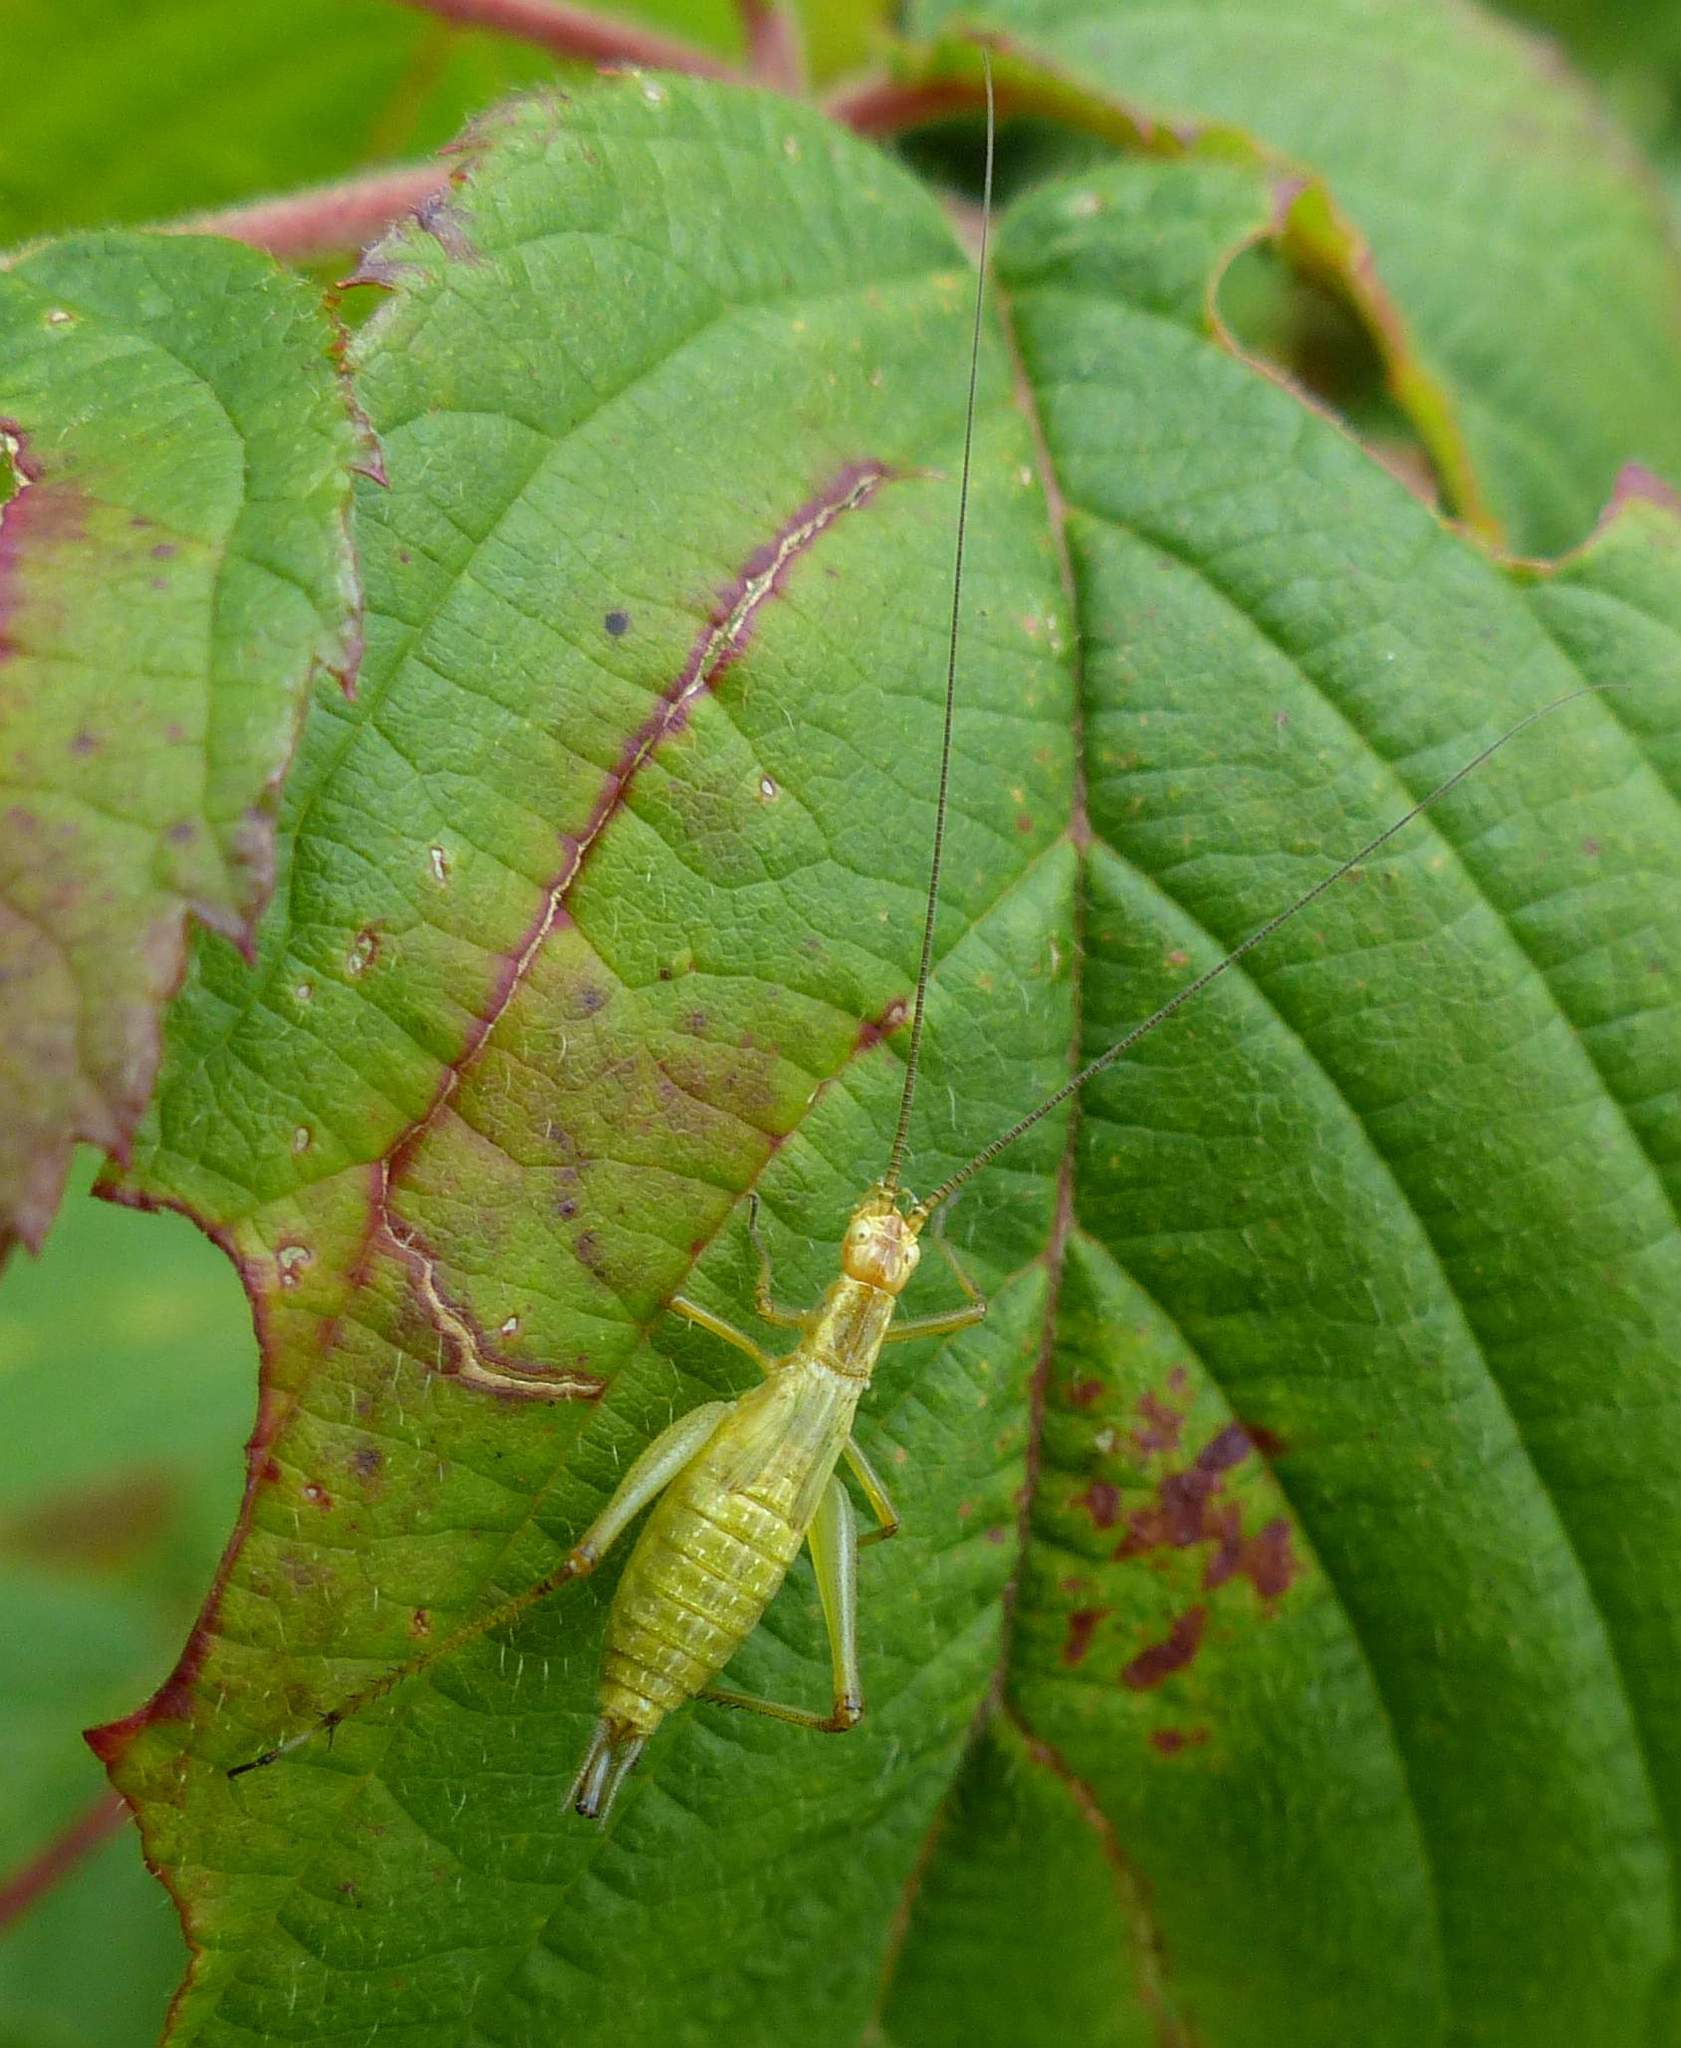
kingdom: Animalia
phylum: Arthropoda
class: Insecta
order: Orthoptera
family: Gryllidae
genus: Oecanthus
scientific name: Oecanthus nigricornis
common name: Black-horned tree cricket
